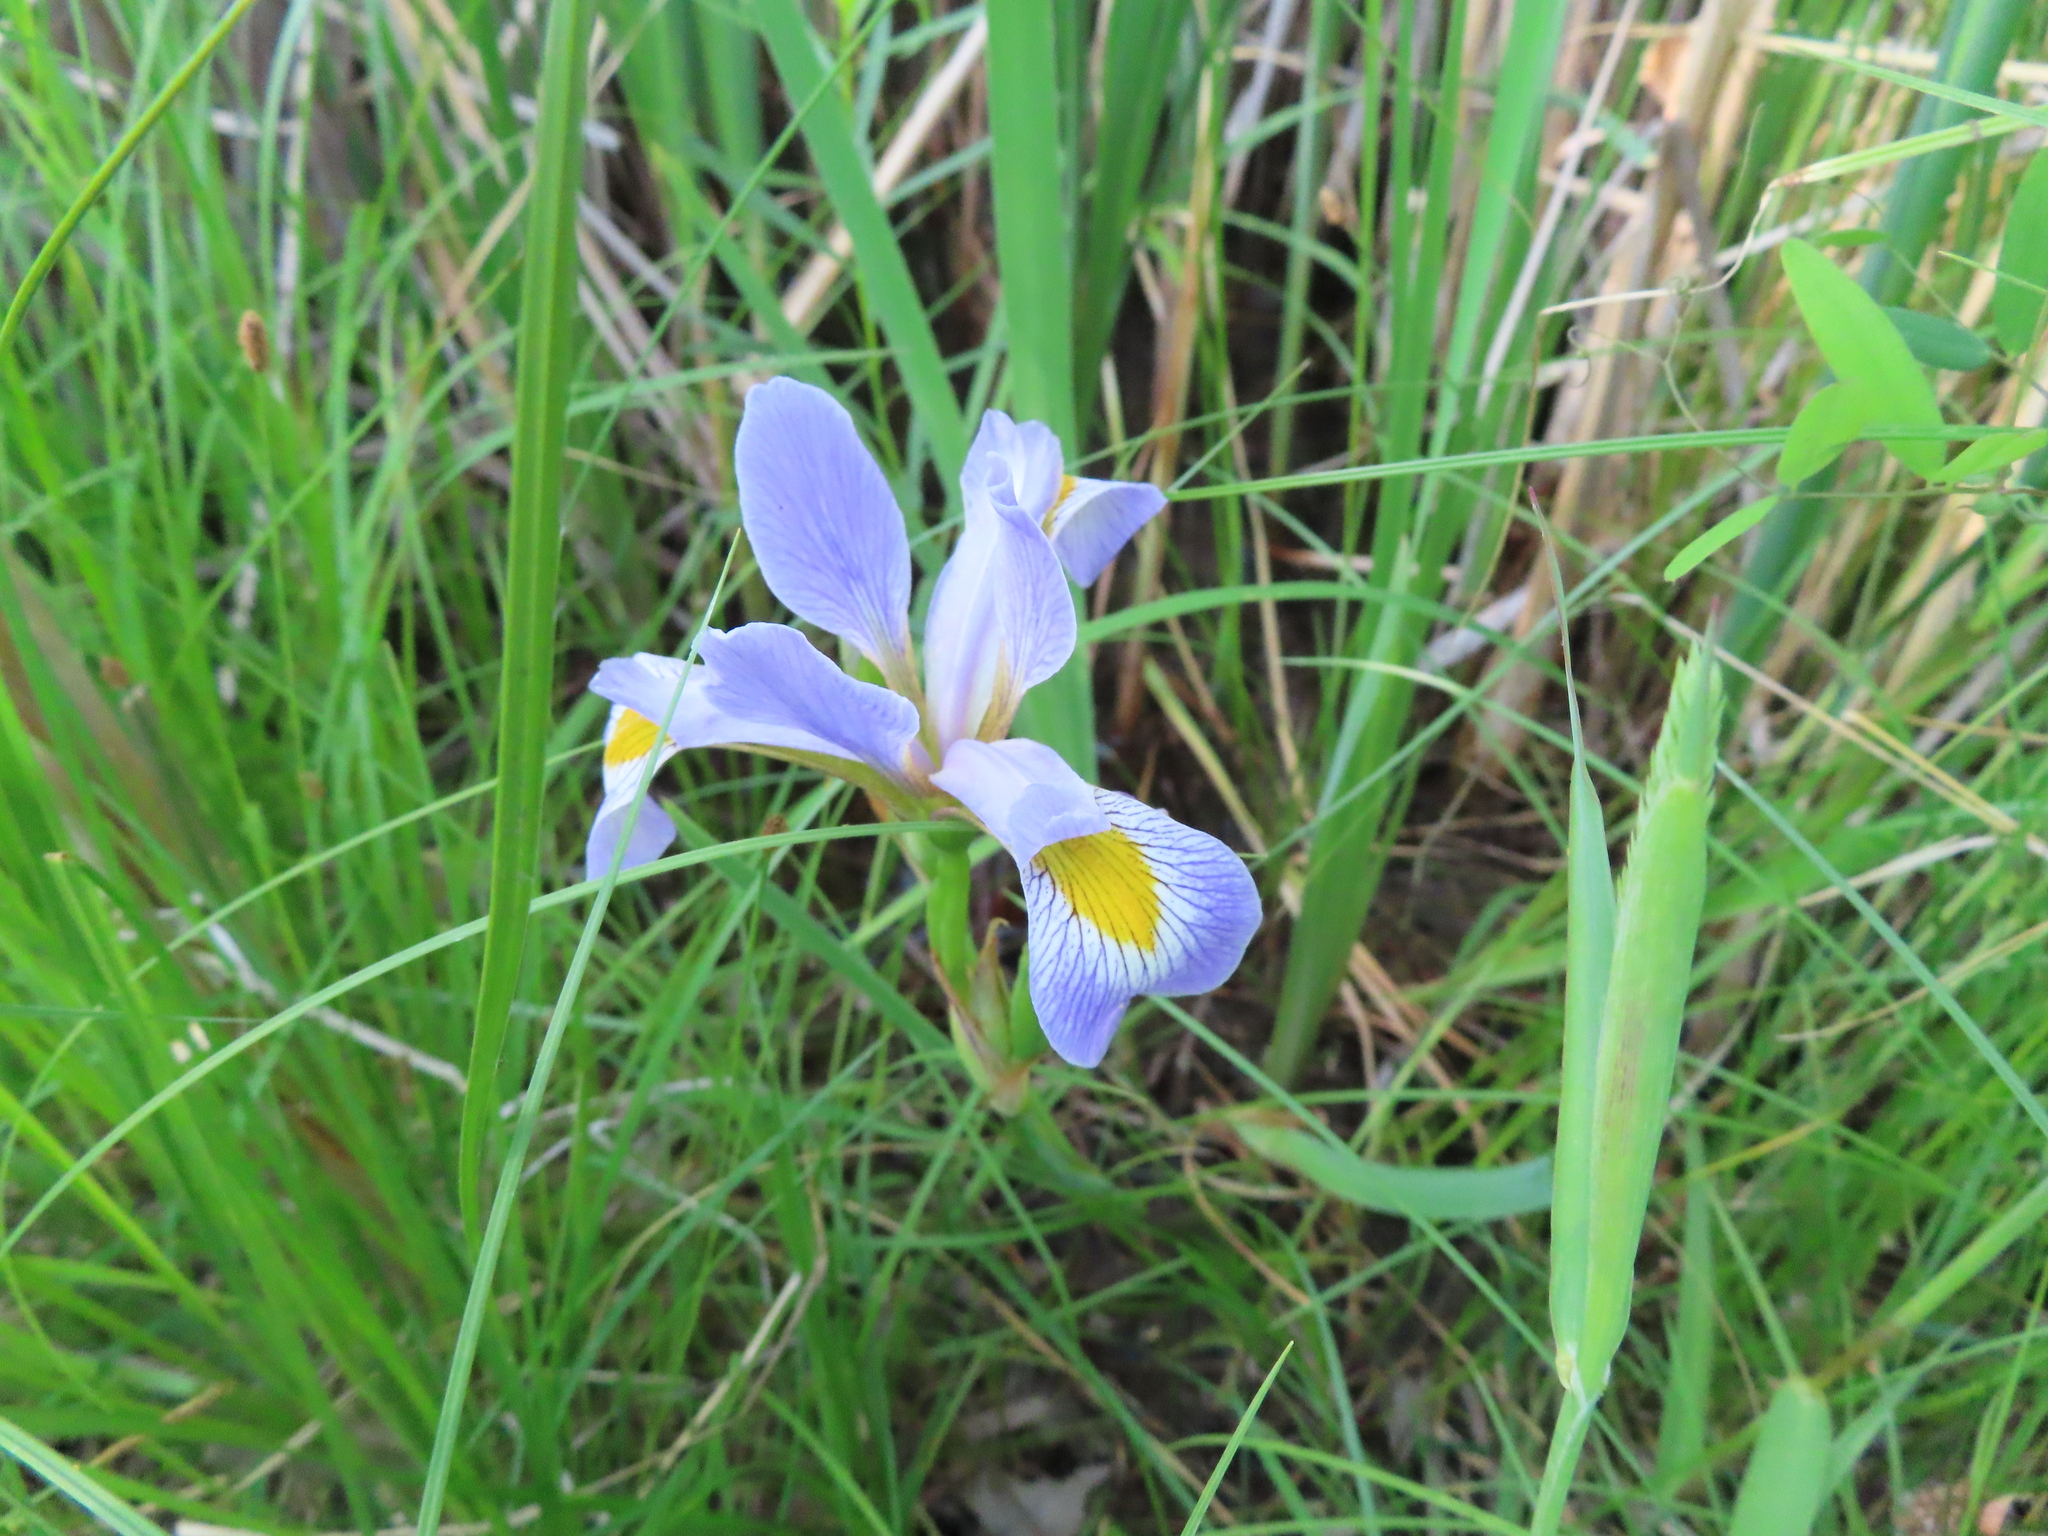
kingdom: Plantae
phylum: Tracheophyta
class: Liliopsida
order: Asparagales
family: Iridaceae
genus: Iris
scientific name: Iris virginica
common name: Southern blue flag
